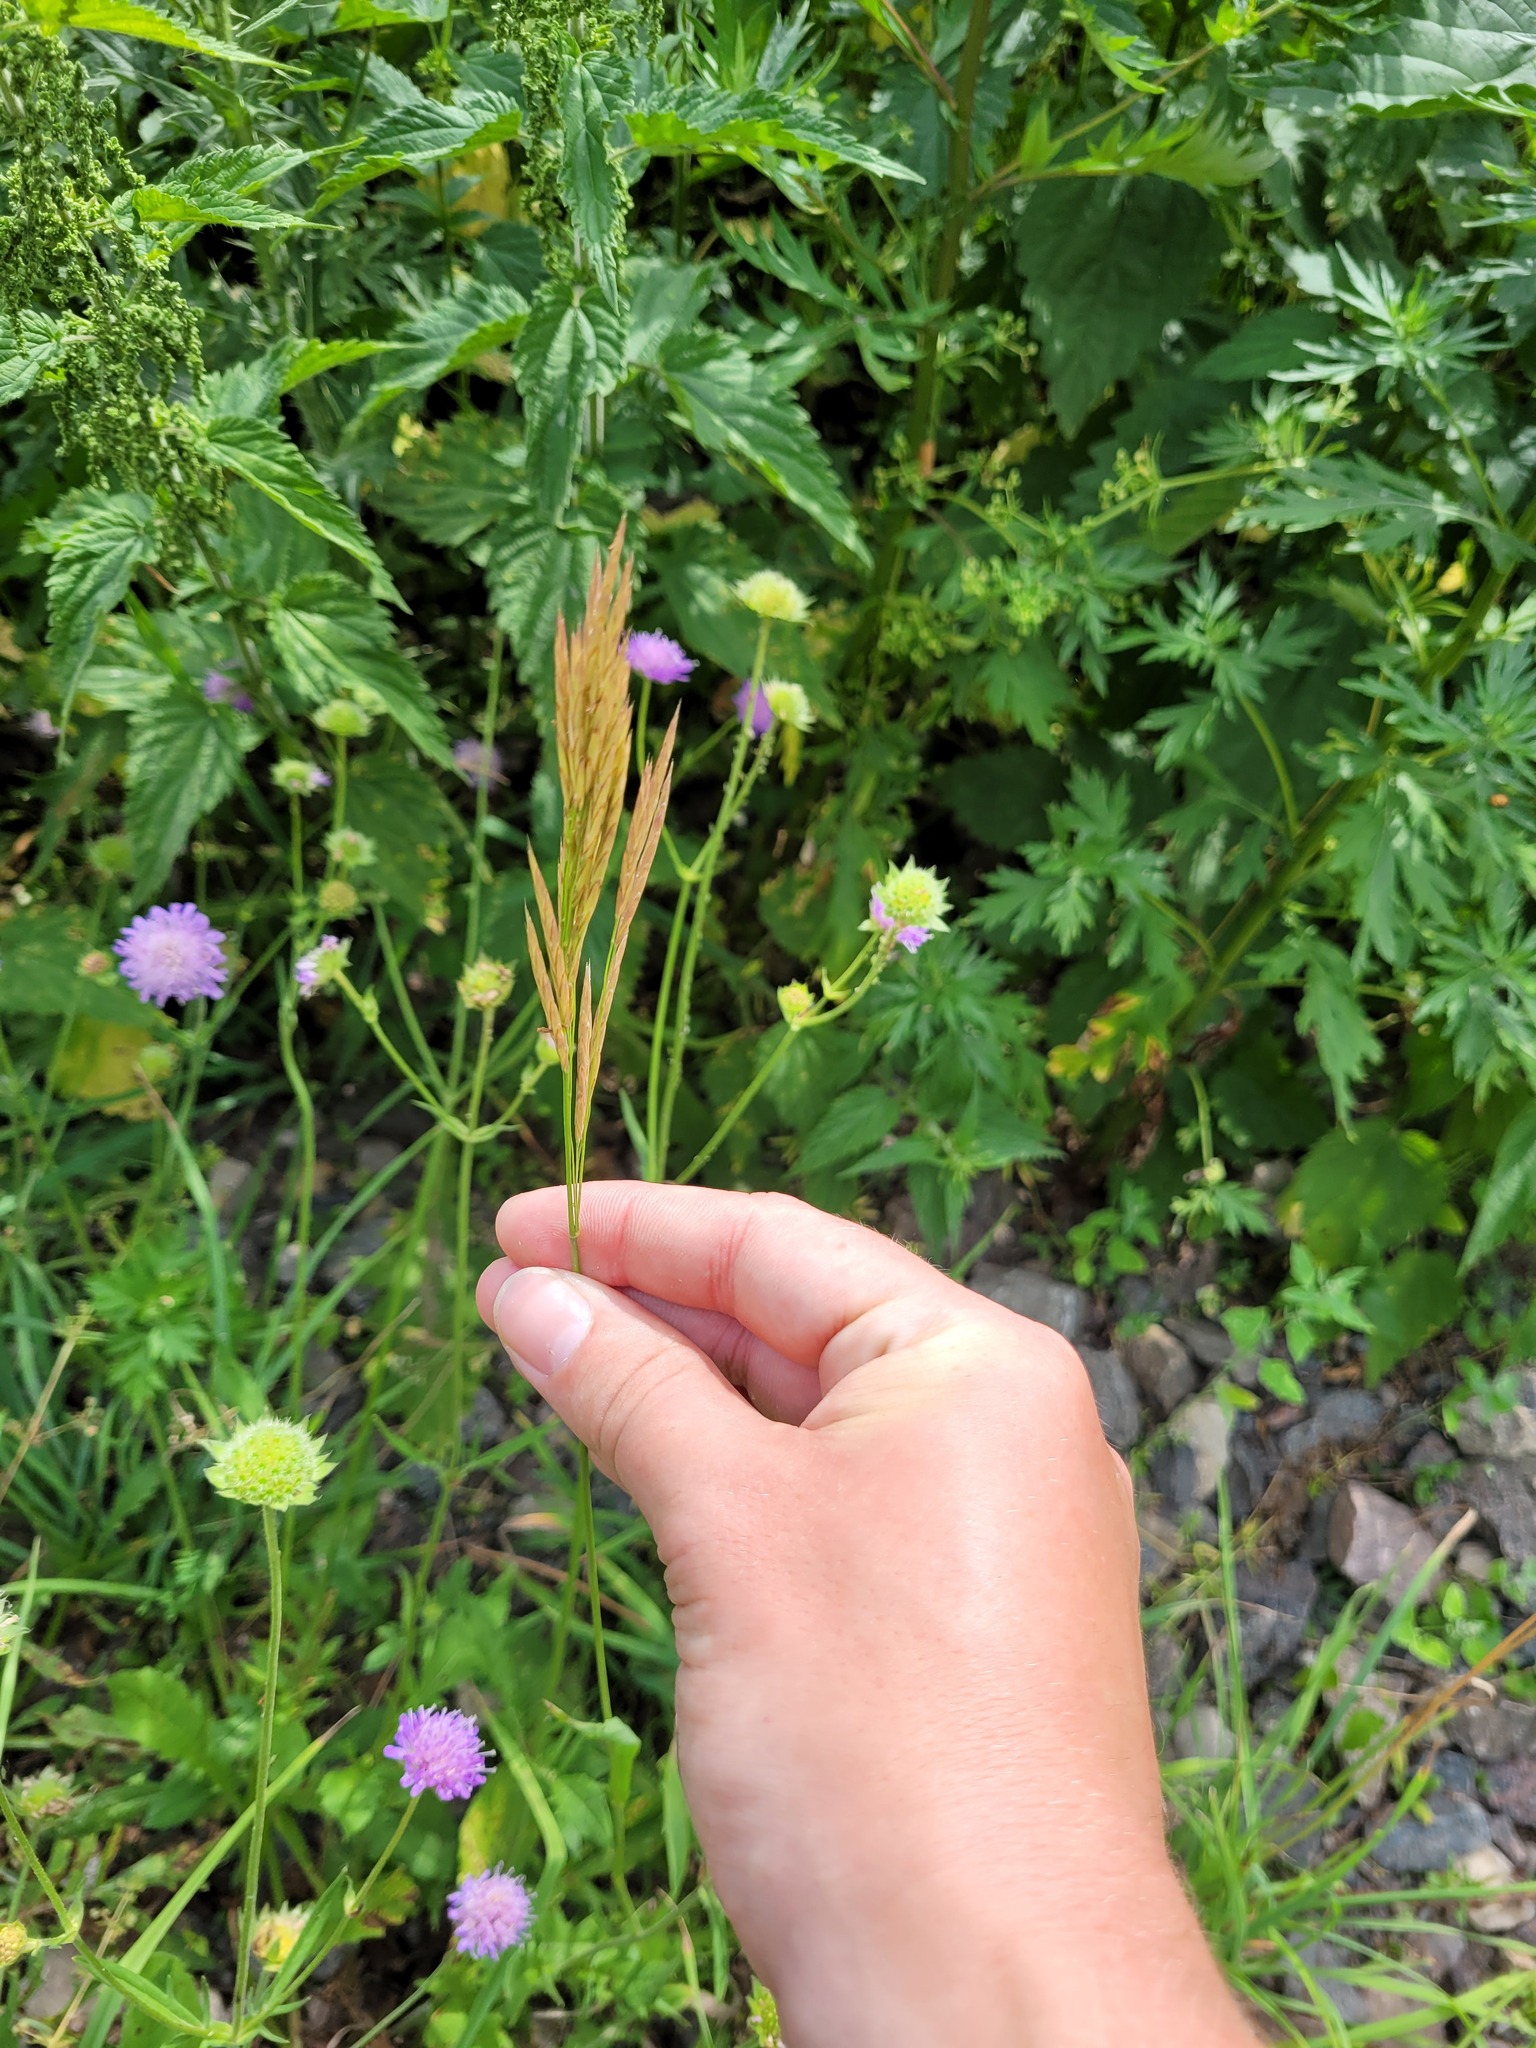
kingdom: Plantae
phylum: Tracheophyta
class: Liliopsida
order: Poales
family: Poaceae
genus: Bromus
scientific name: Bromus inermis
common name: Smooth brome
